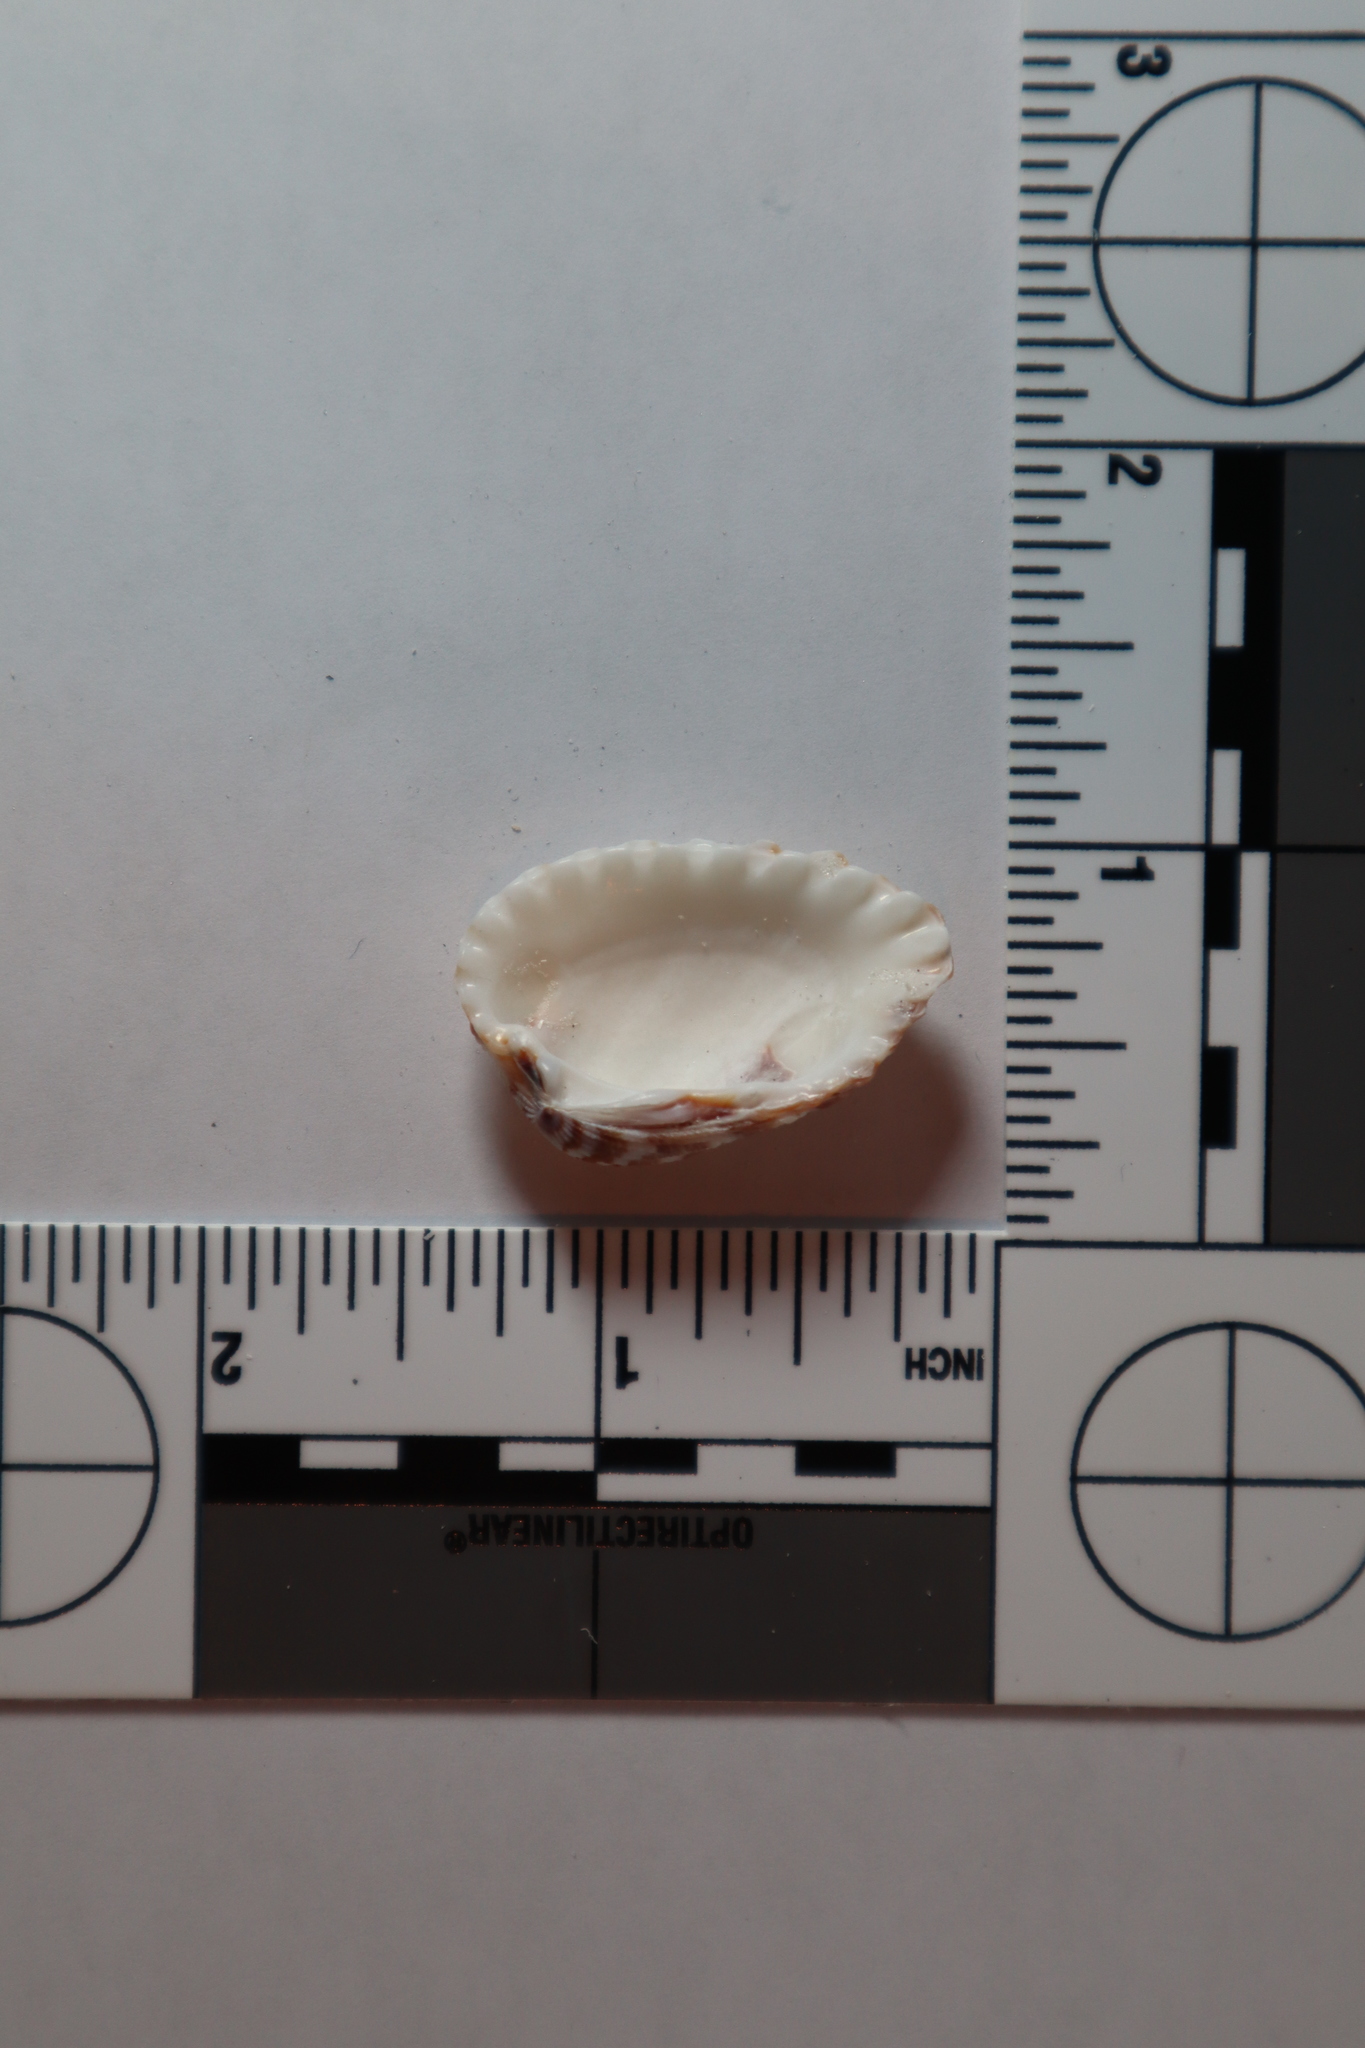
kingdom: Animalia
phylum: Mollusca
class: Bivalvia
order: Carditida
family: Carditidae
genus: Cardites
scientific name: Cardites floridanus
